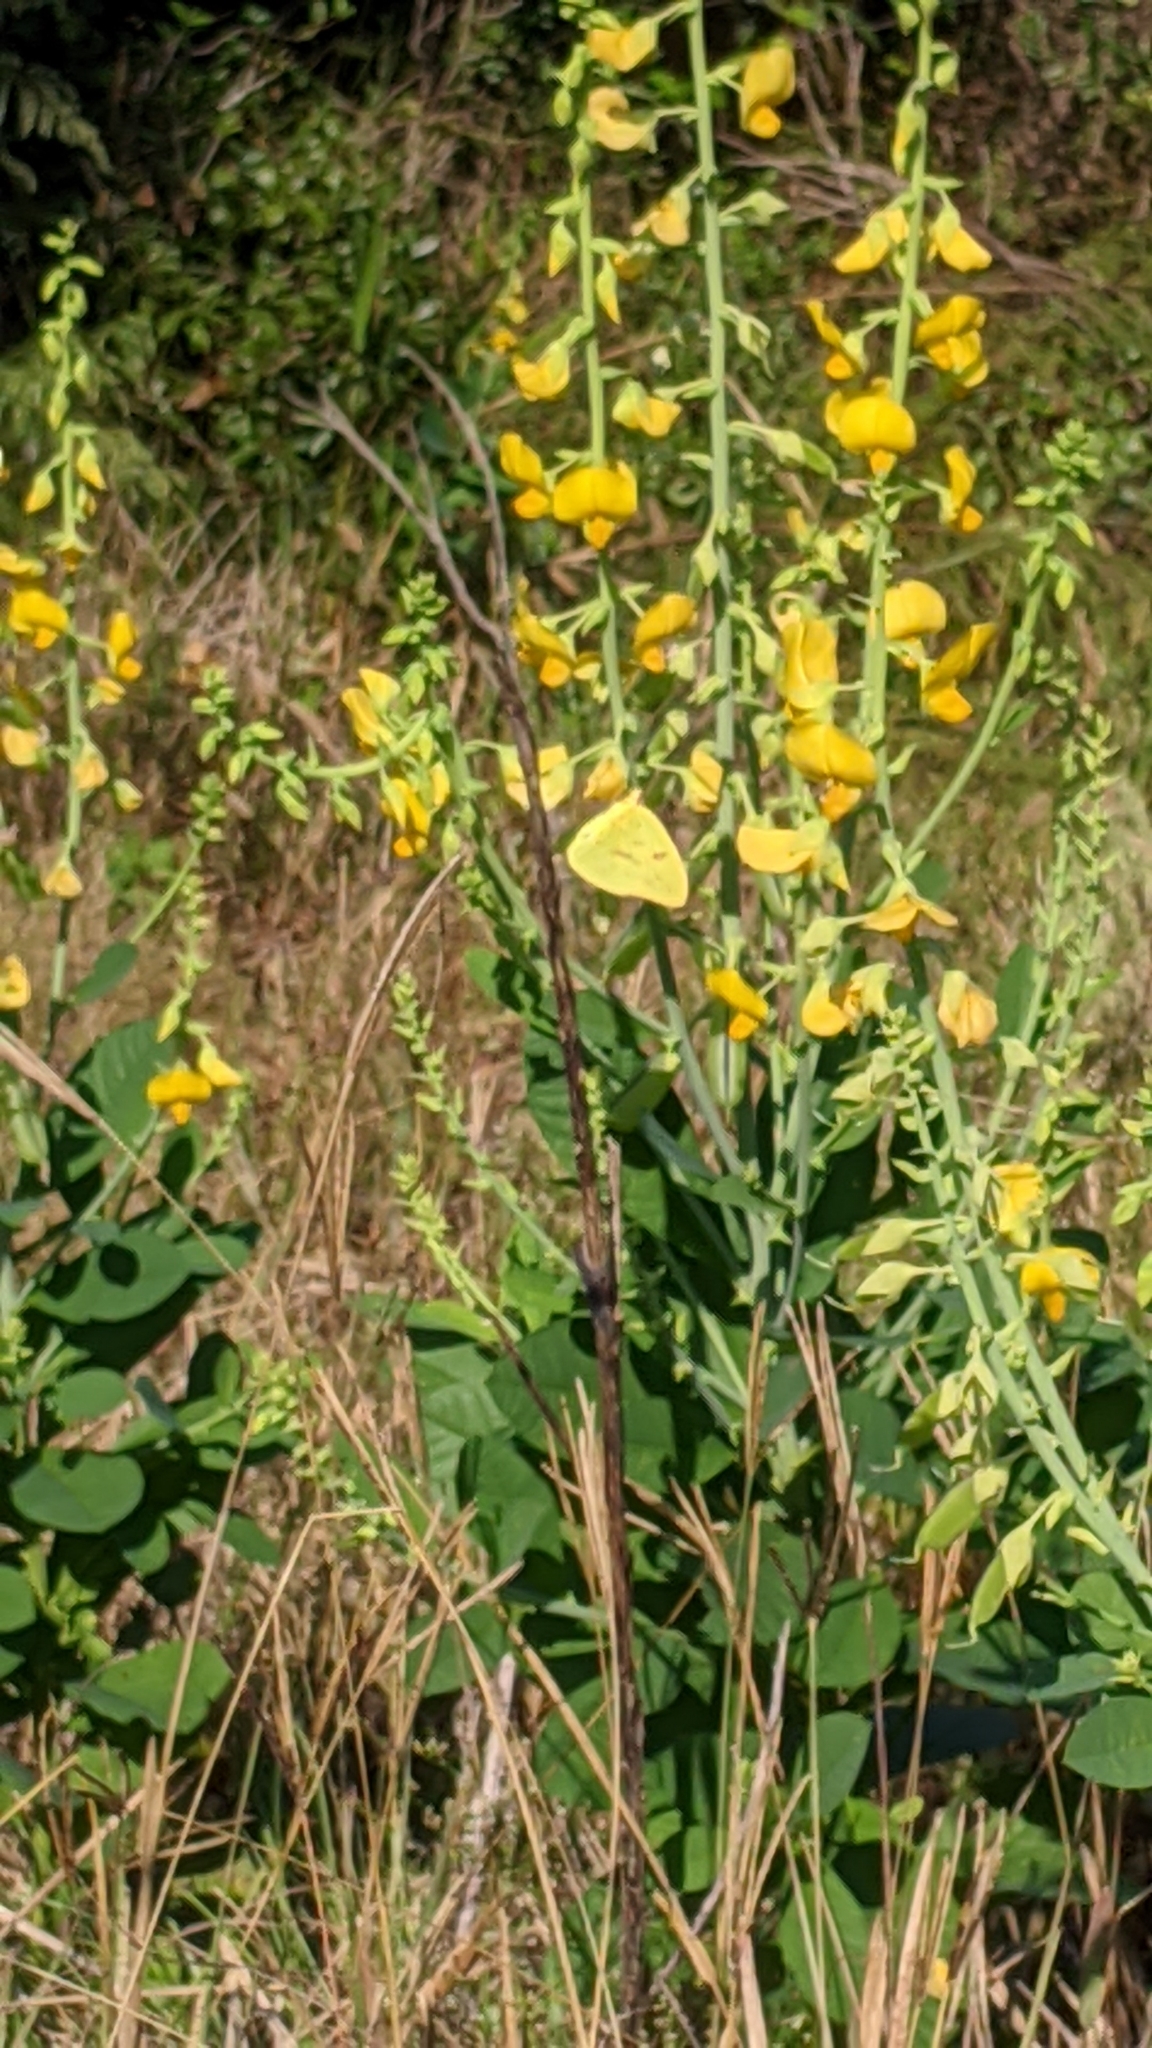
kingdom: Animalia
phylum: Arthropoda
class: Insecta
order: Lepidoptera
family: Pieridae
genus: Phoebis
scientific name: Phoebis sennae
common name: Cloudless sulphur
